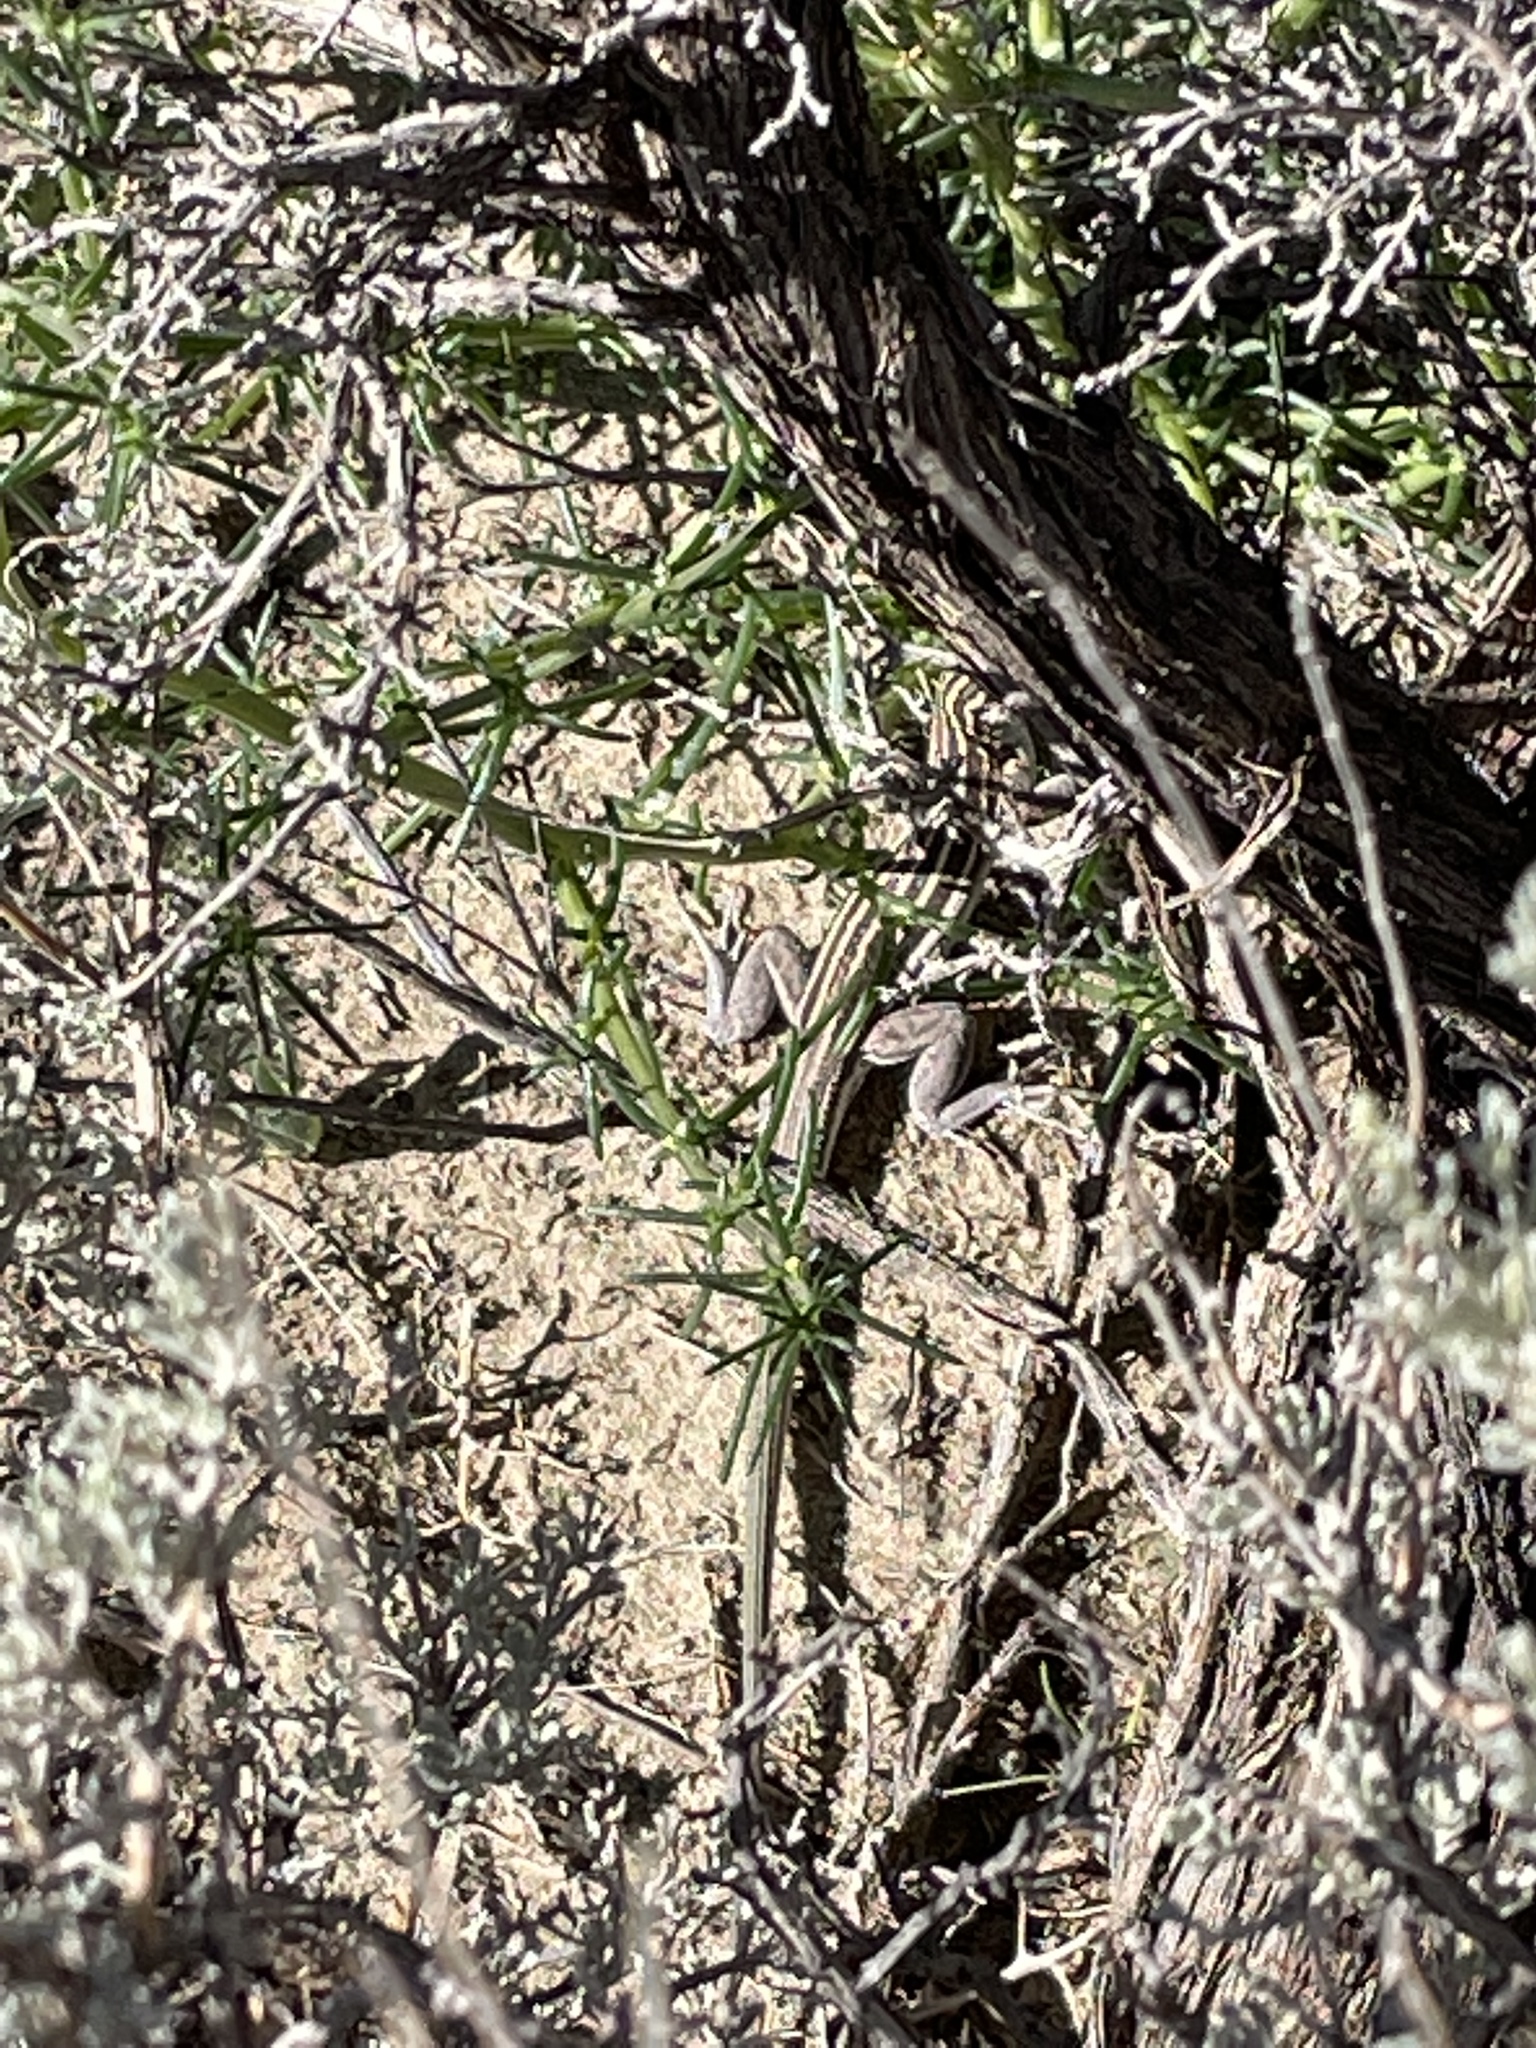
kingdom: Animalia
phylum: Chordata
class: Squamata
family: Teiidae
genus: Aspidoscelis
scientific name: Aspidoscelis velox
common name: Plateau striped whiptail
